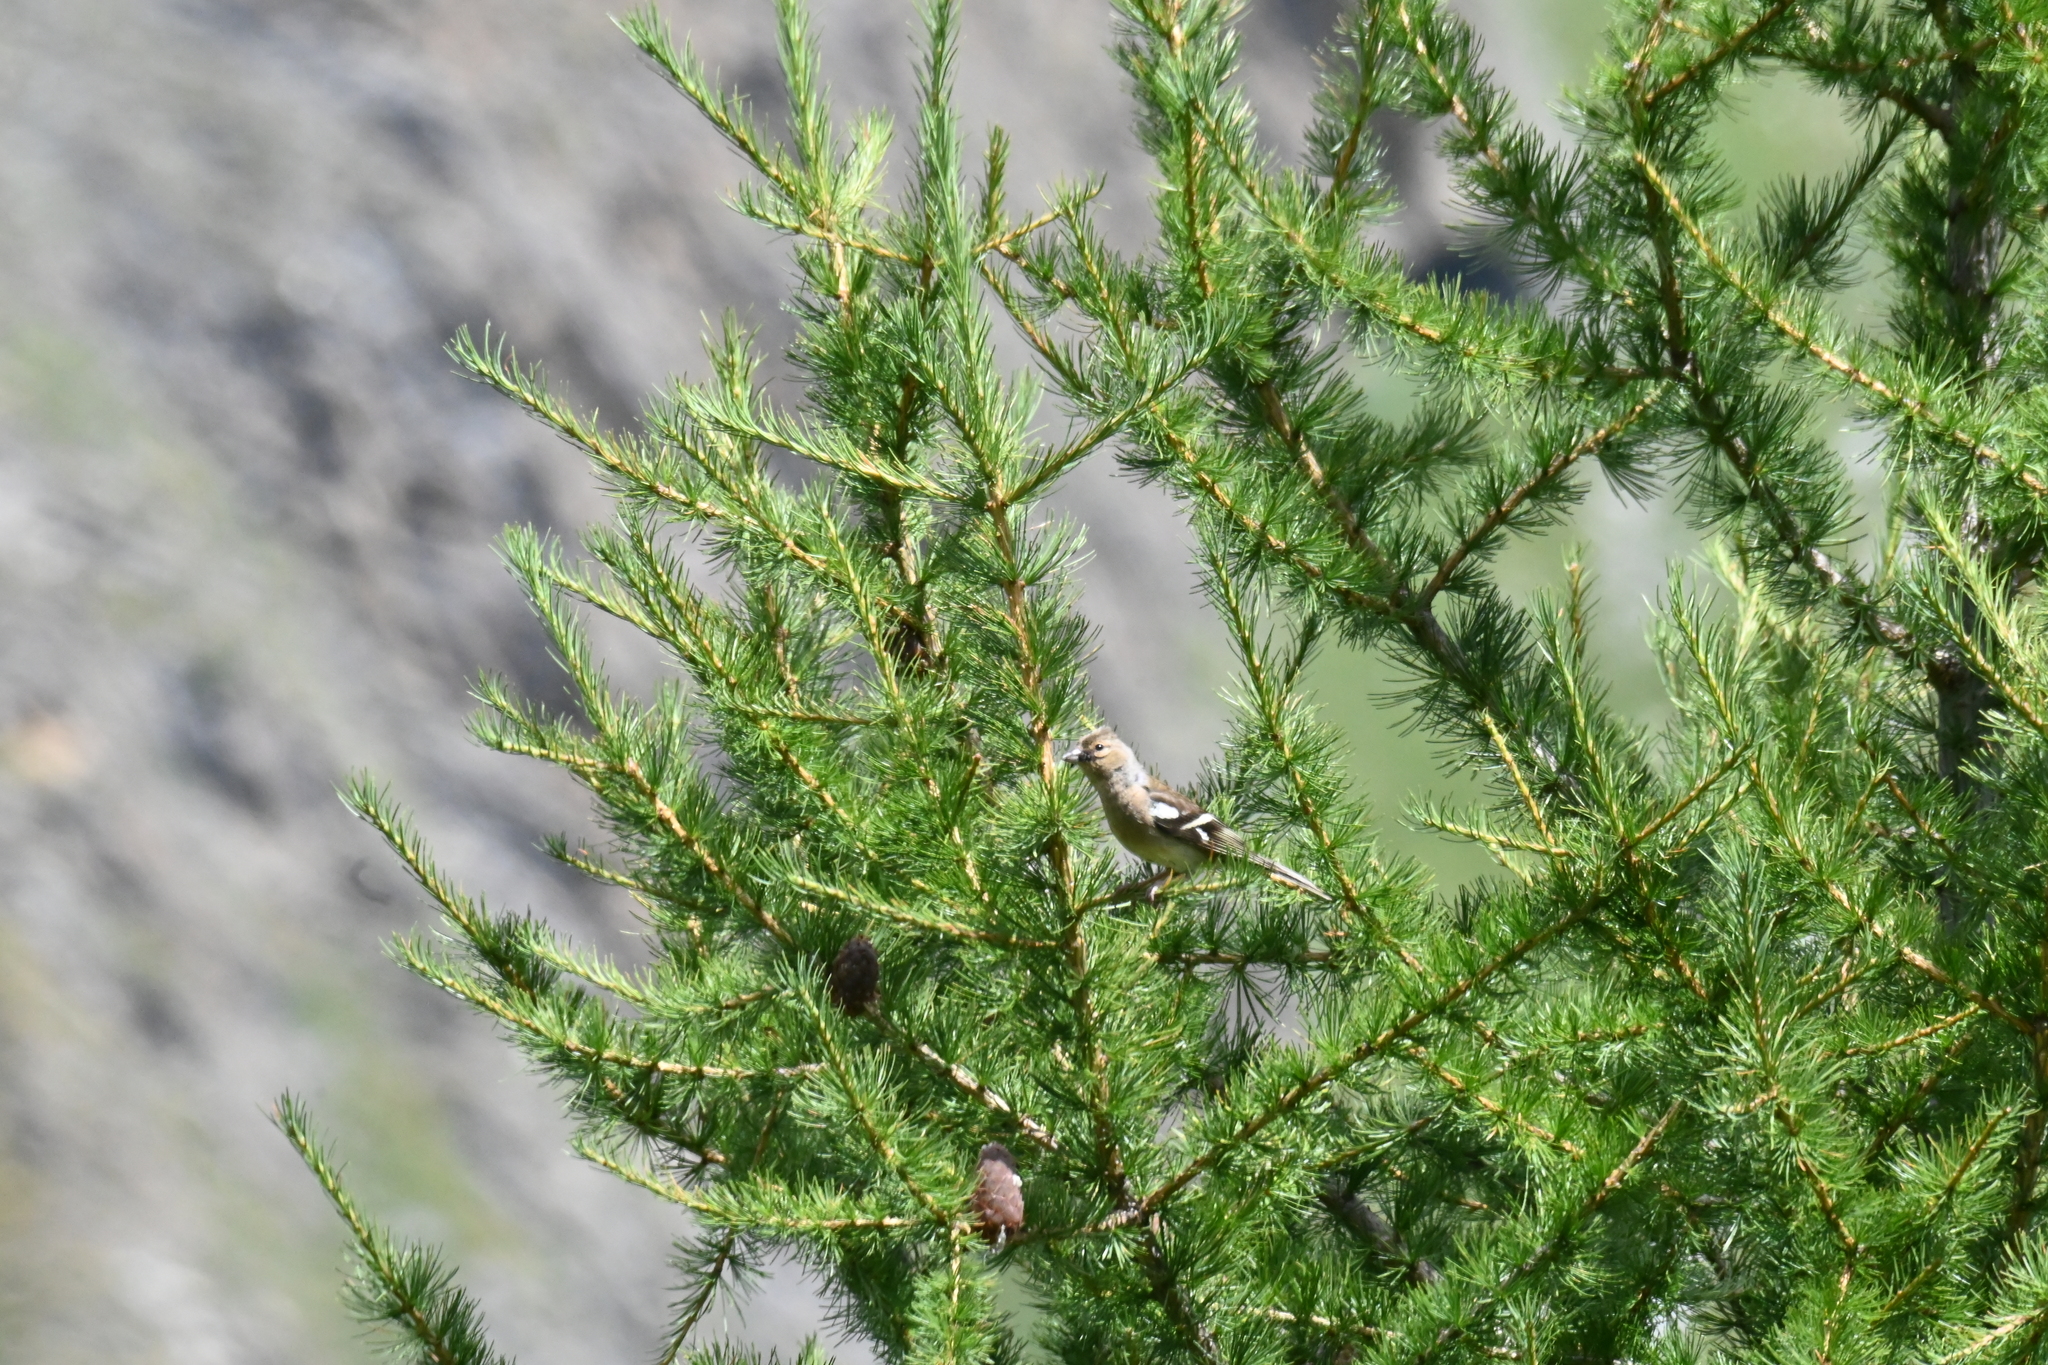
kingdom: Animalia
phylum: Chordata
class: Aves
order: Passeriformes
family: Fringillidae
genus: Fringilla
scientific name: Fringilla coelebs
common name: Common chaffinch
